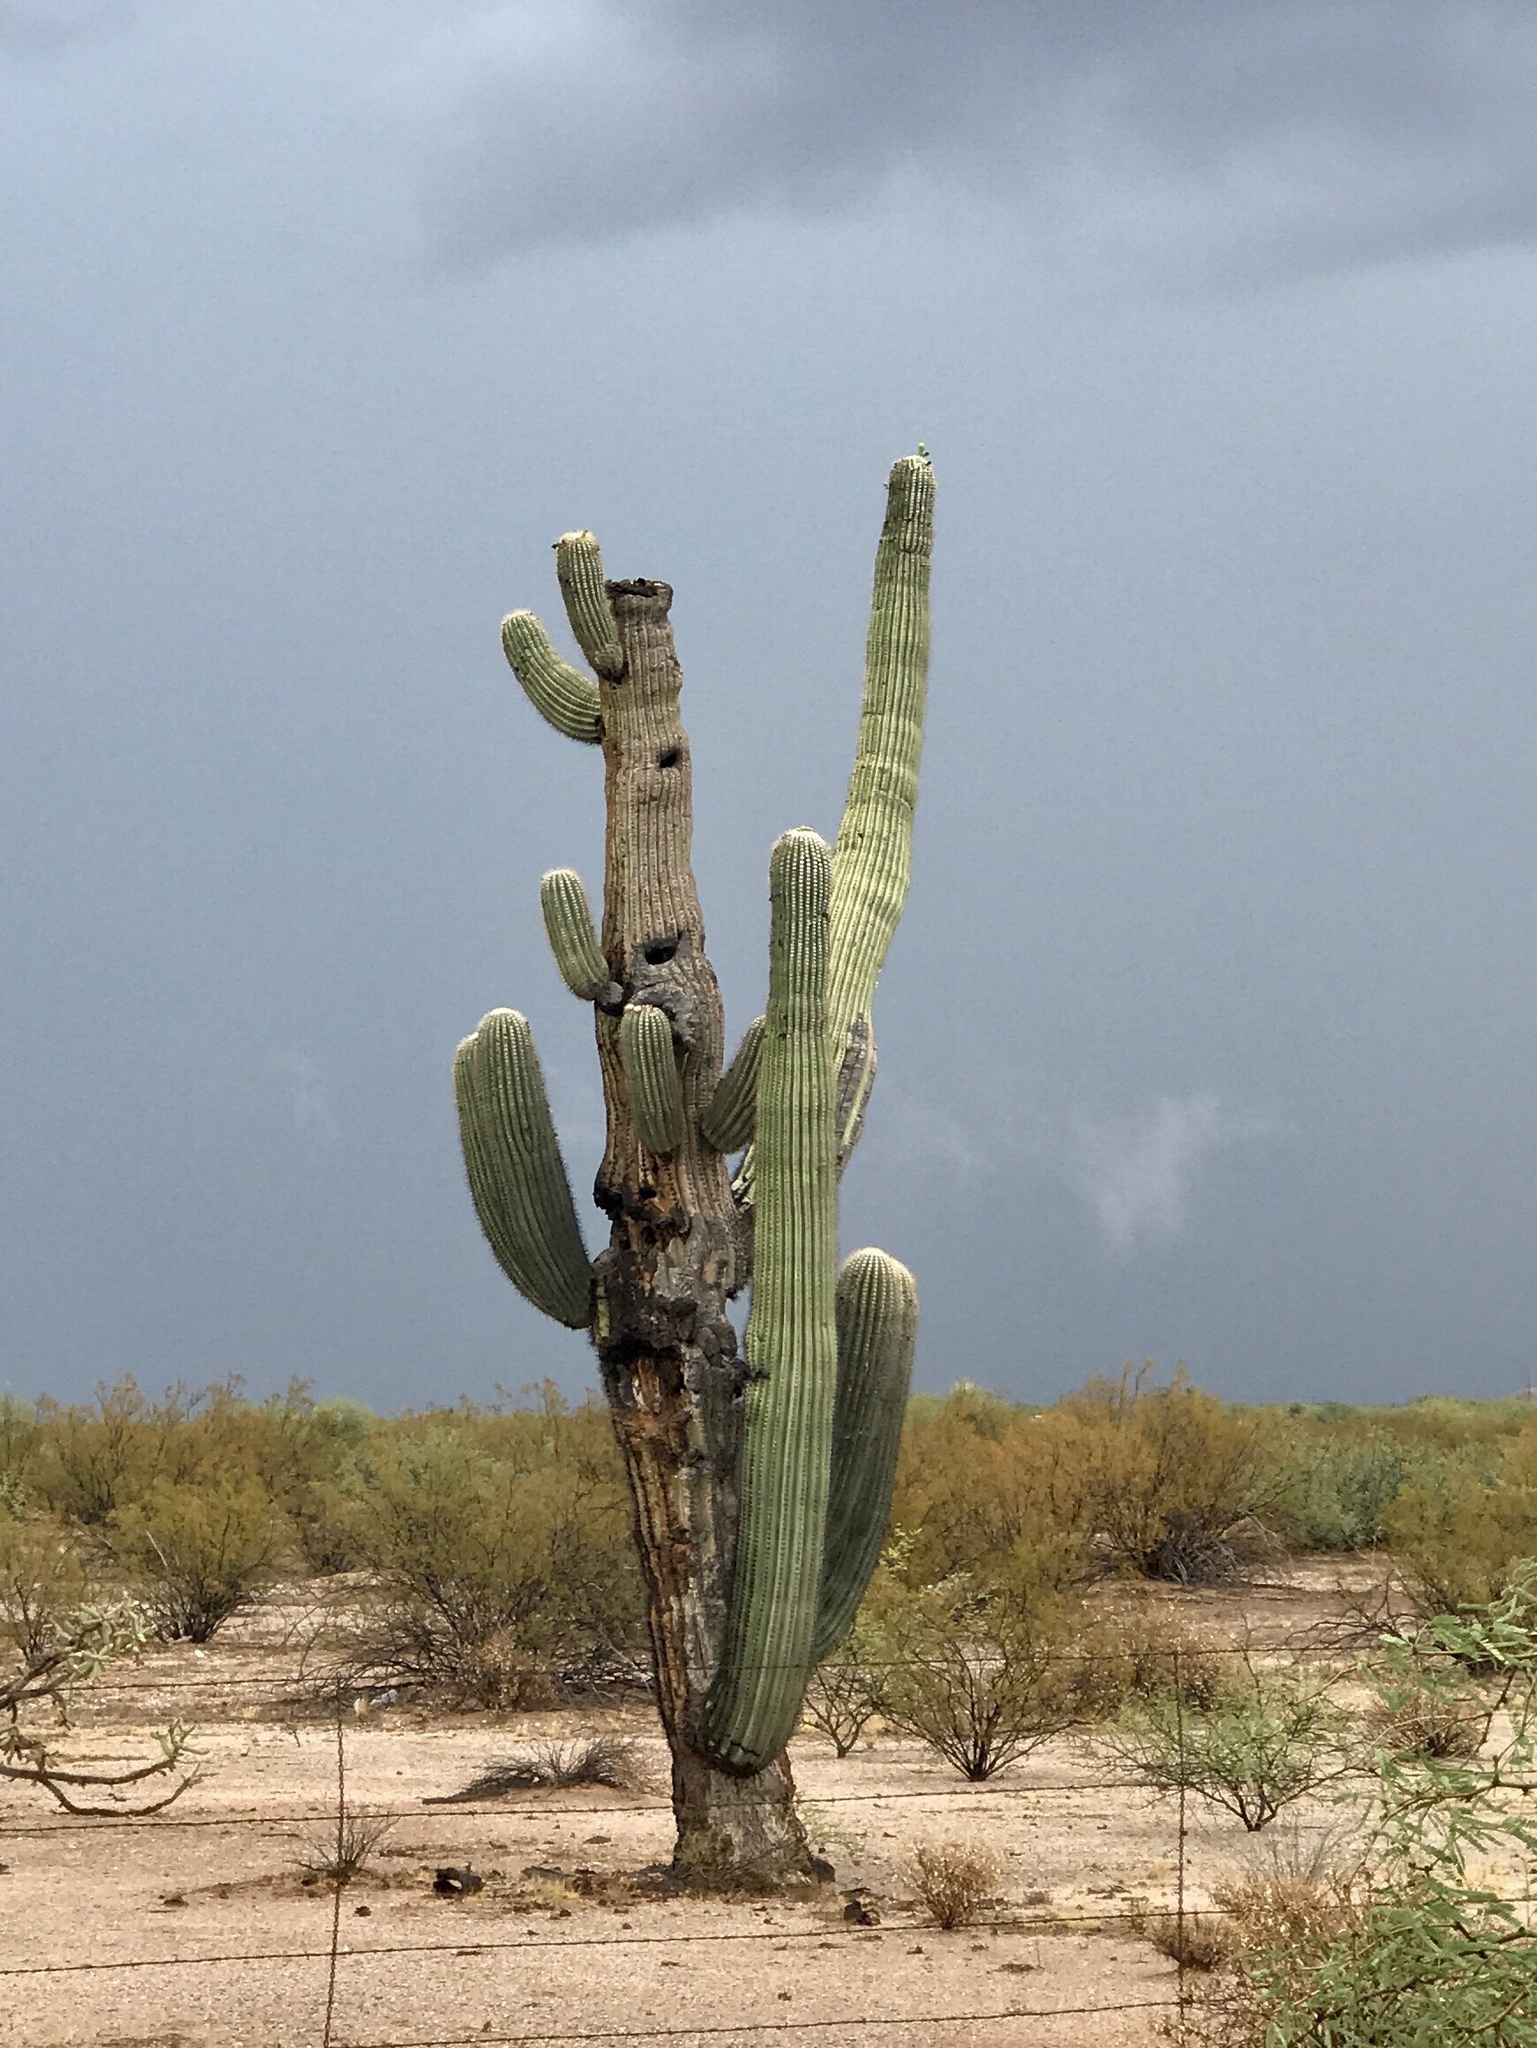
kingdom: Plantae
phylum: Tracheophyta
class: Magnoliopsida
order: Caryophyllales
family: Cactaceae
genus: Carnegiea
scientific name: Carnegiea gigantea
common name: Saguaro
